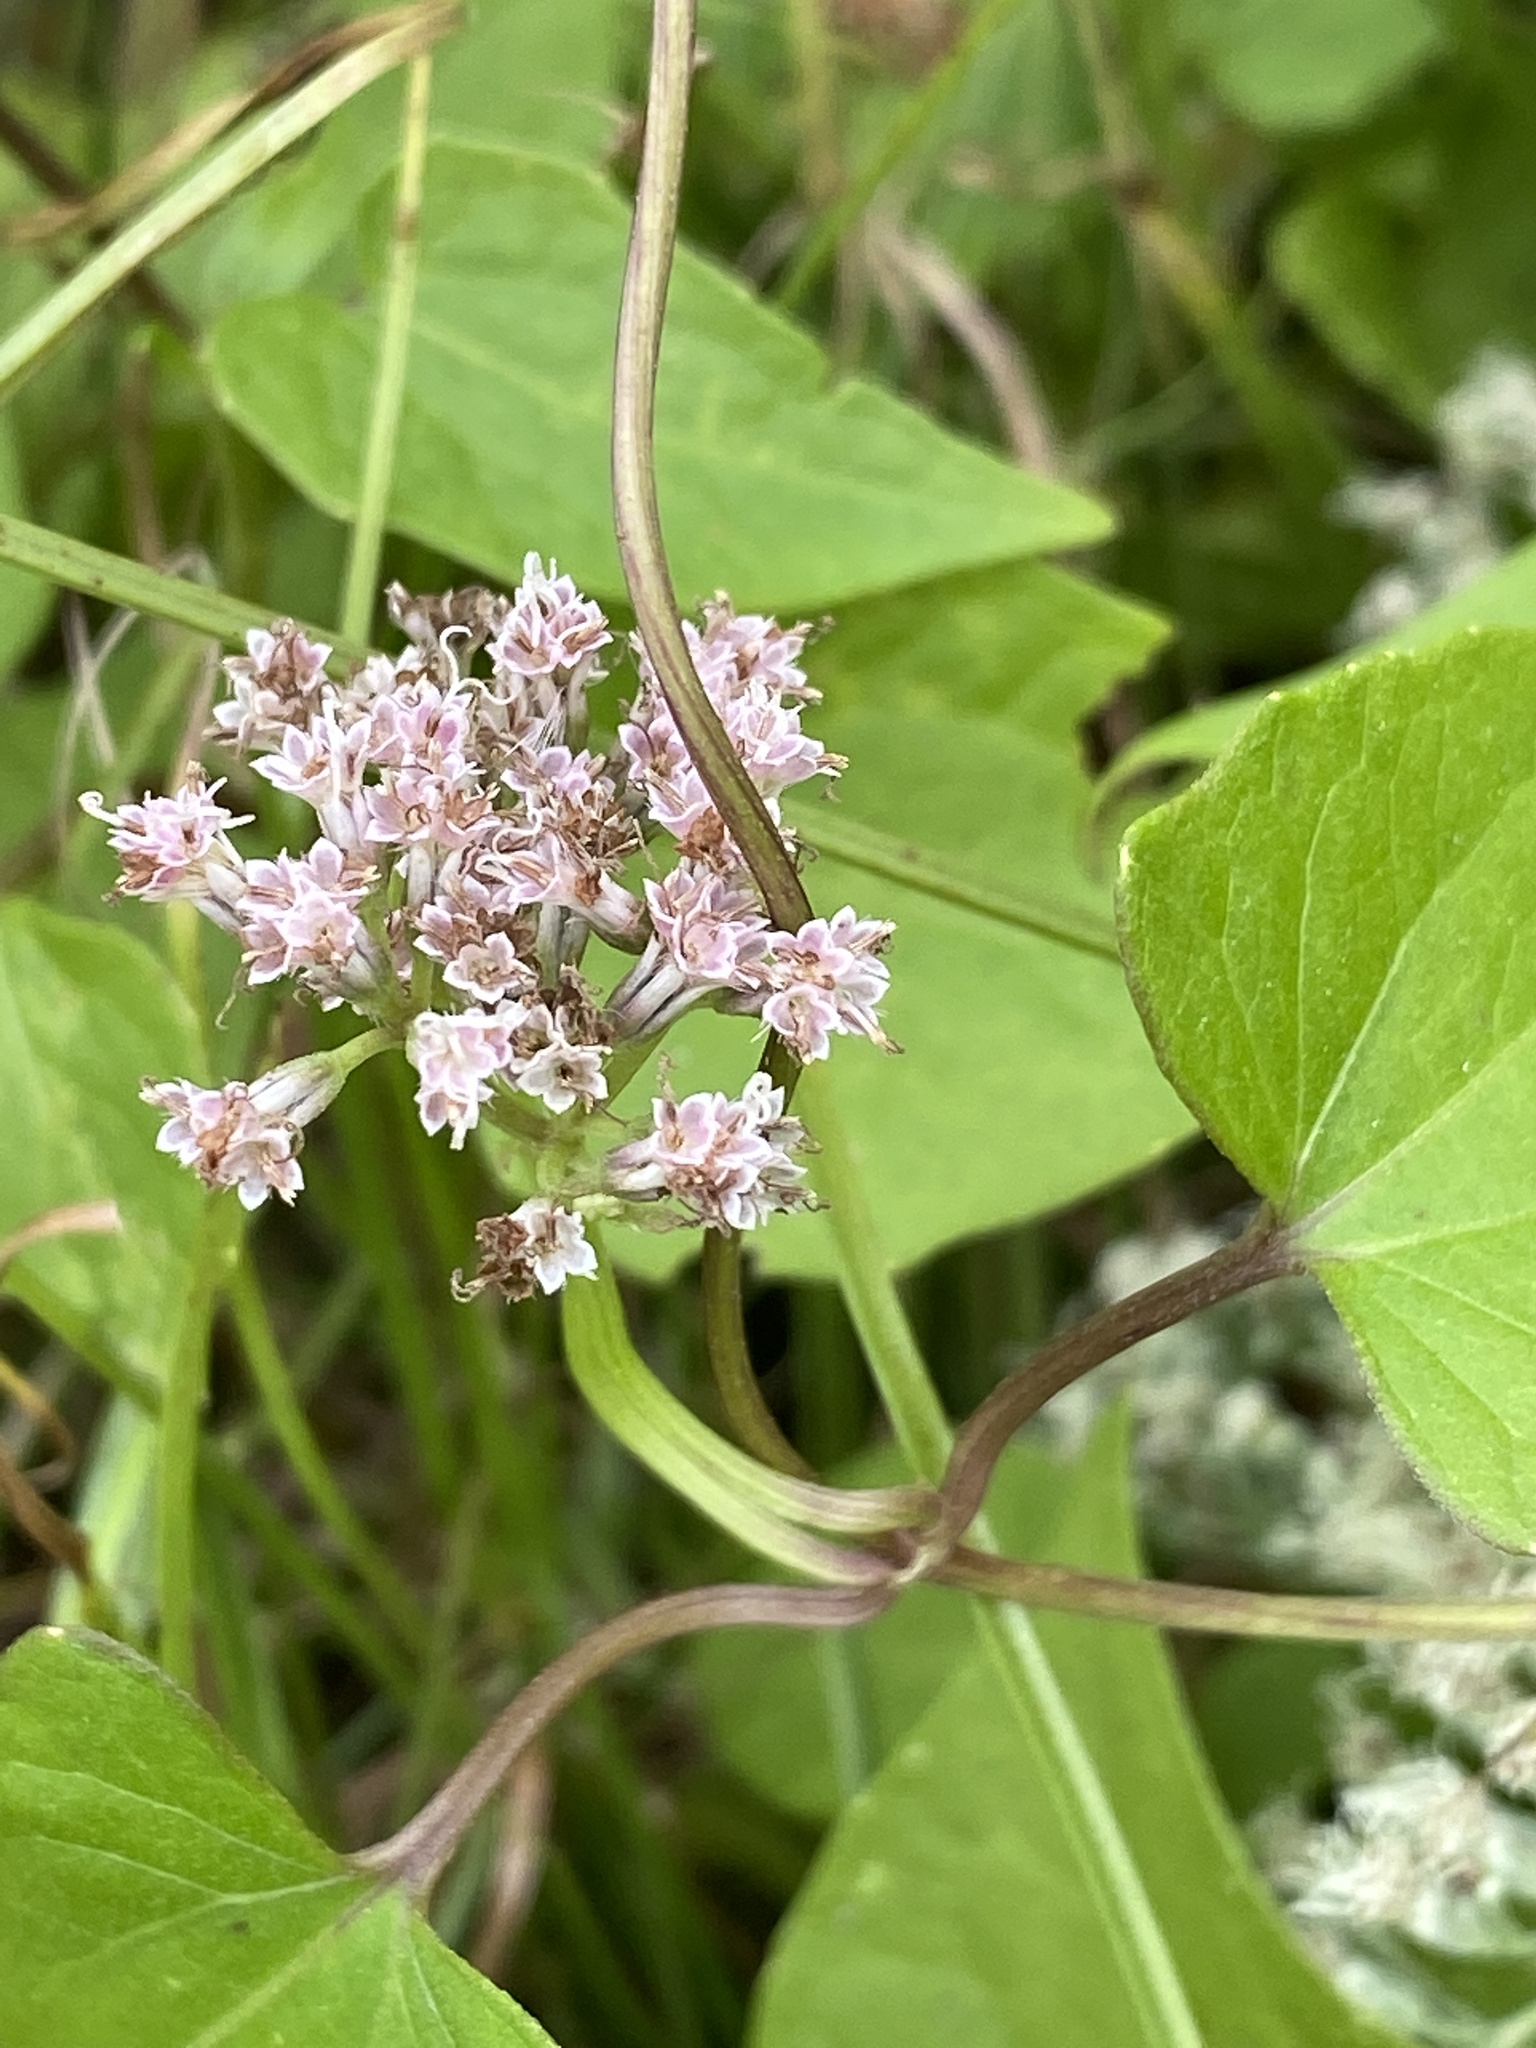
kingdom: Plantae
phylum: Tracheophyta
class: Magnoliopsida
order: Asterales
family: Asteraceae
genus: Mikania
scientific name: Mikania scandens
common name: Climbing hempvine
